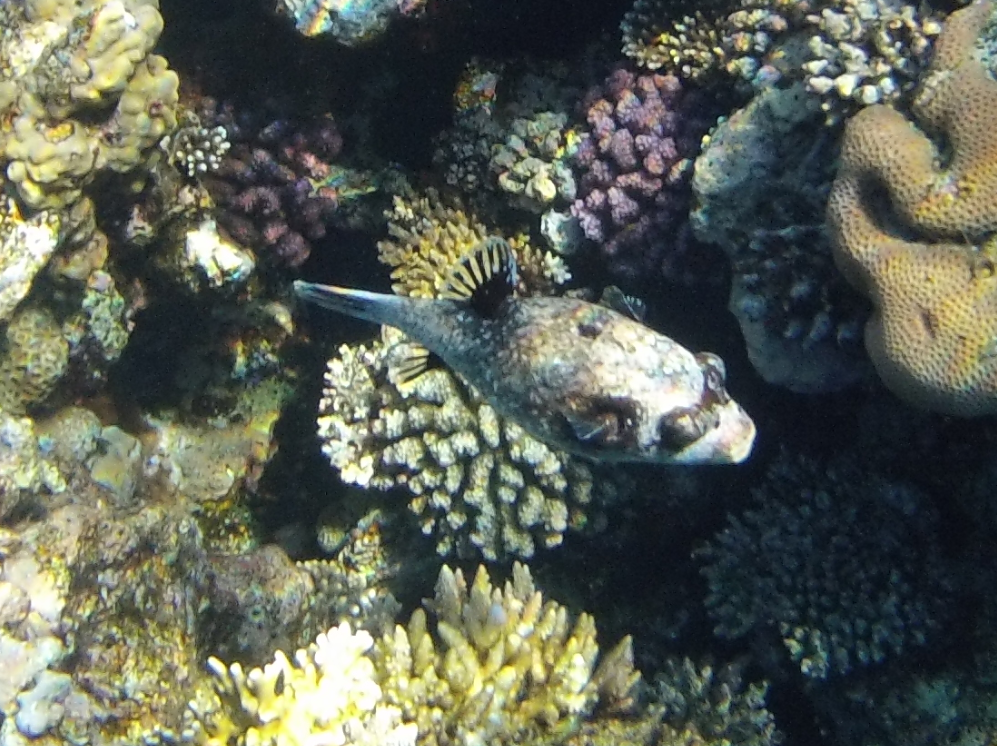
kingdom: Animalia
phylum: Chordata
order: Tetraodontiformes
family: Tetraodontidae
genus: Arothron
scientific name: Arothron diadematus
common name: Masked puffer
